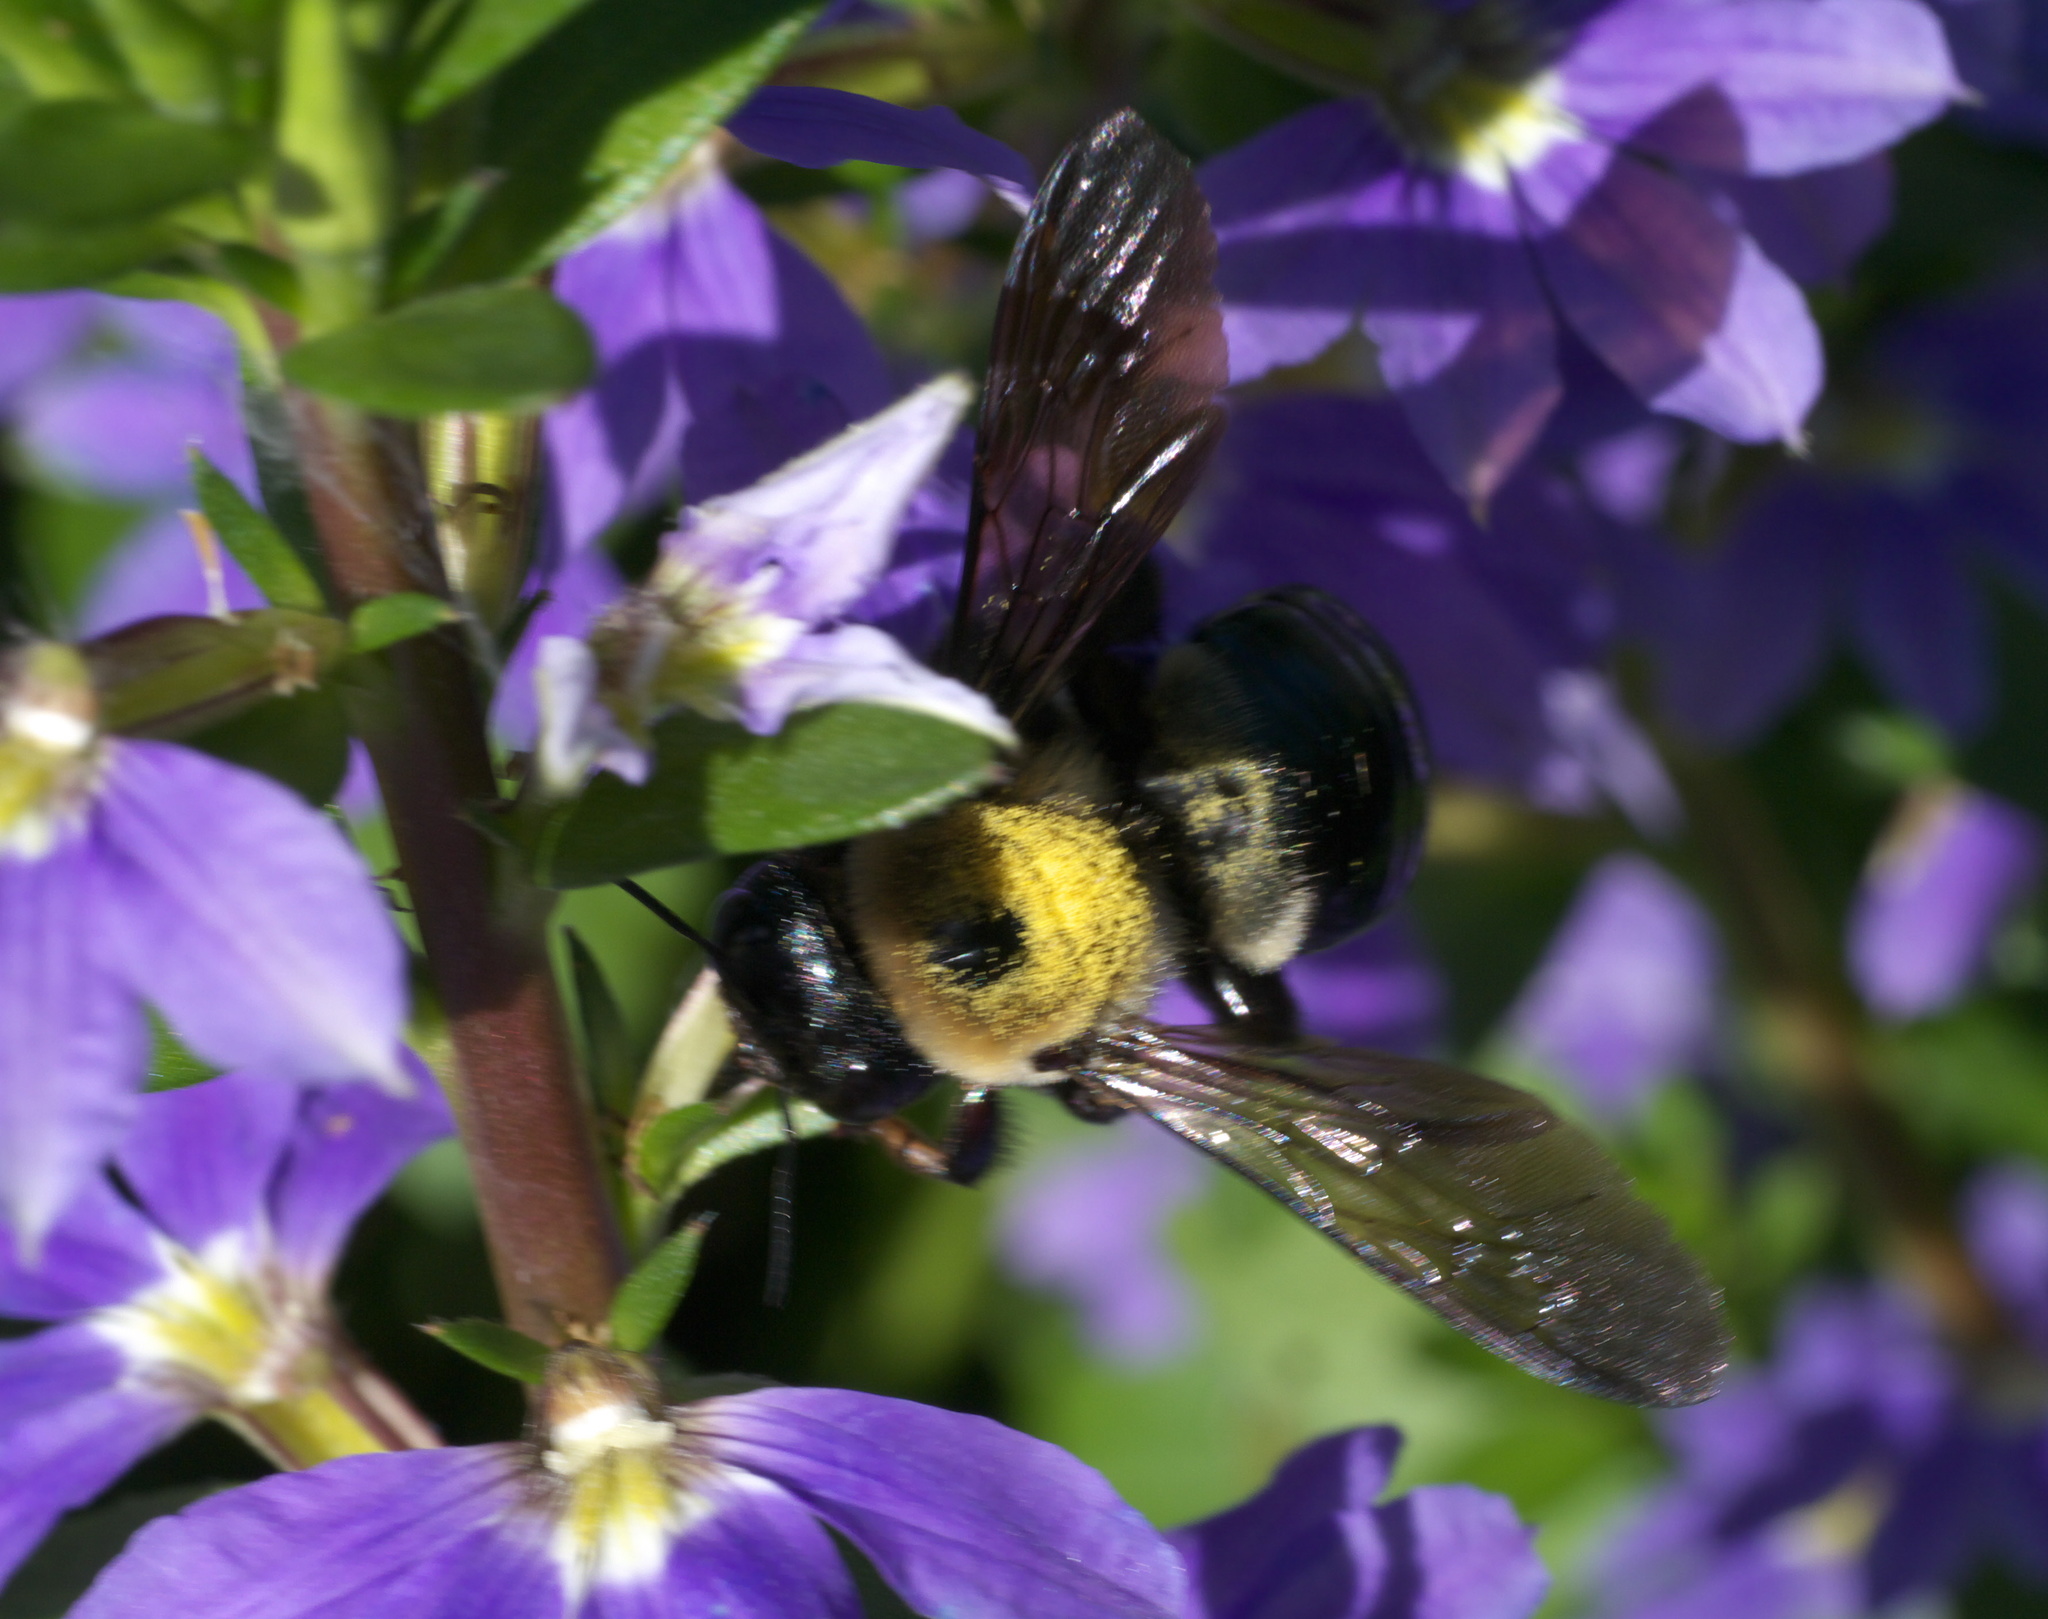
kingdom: Animalia
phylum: Arthropoda
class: Insecta
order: Hymenoptera
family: Apidae
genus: Xylocopa
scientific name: Xylocopa virginica
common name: Carpenter bee
